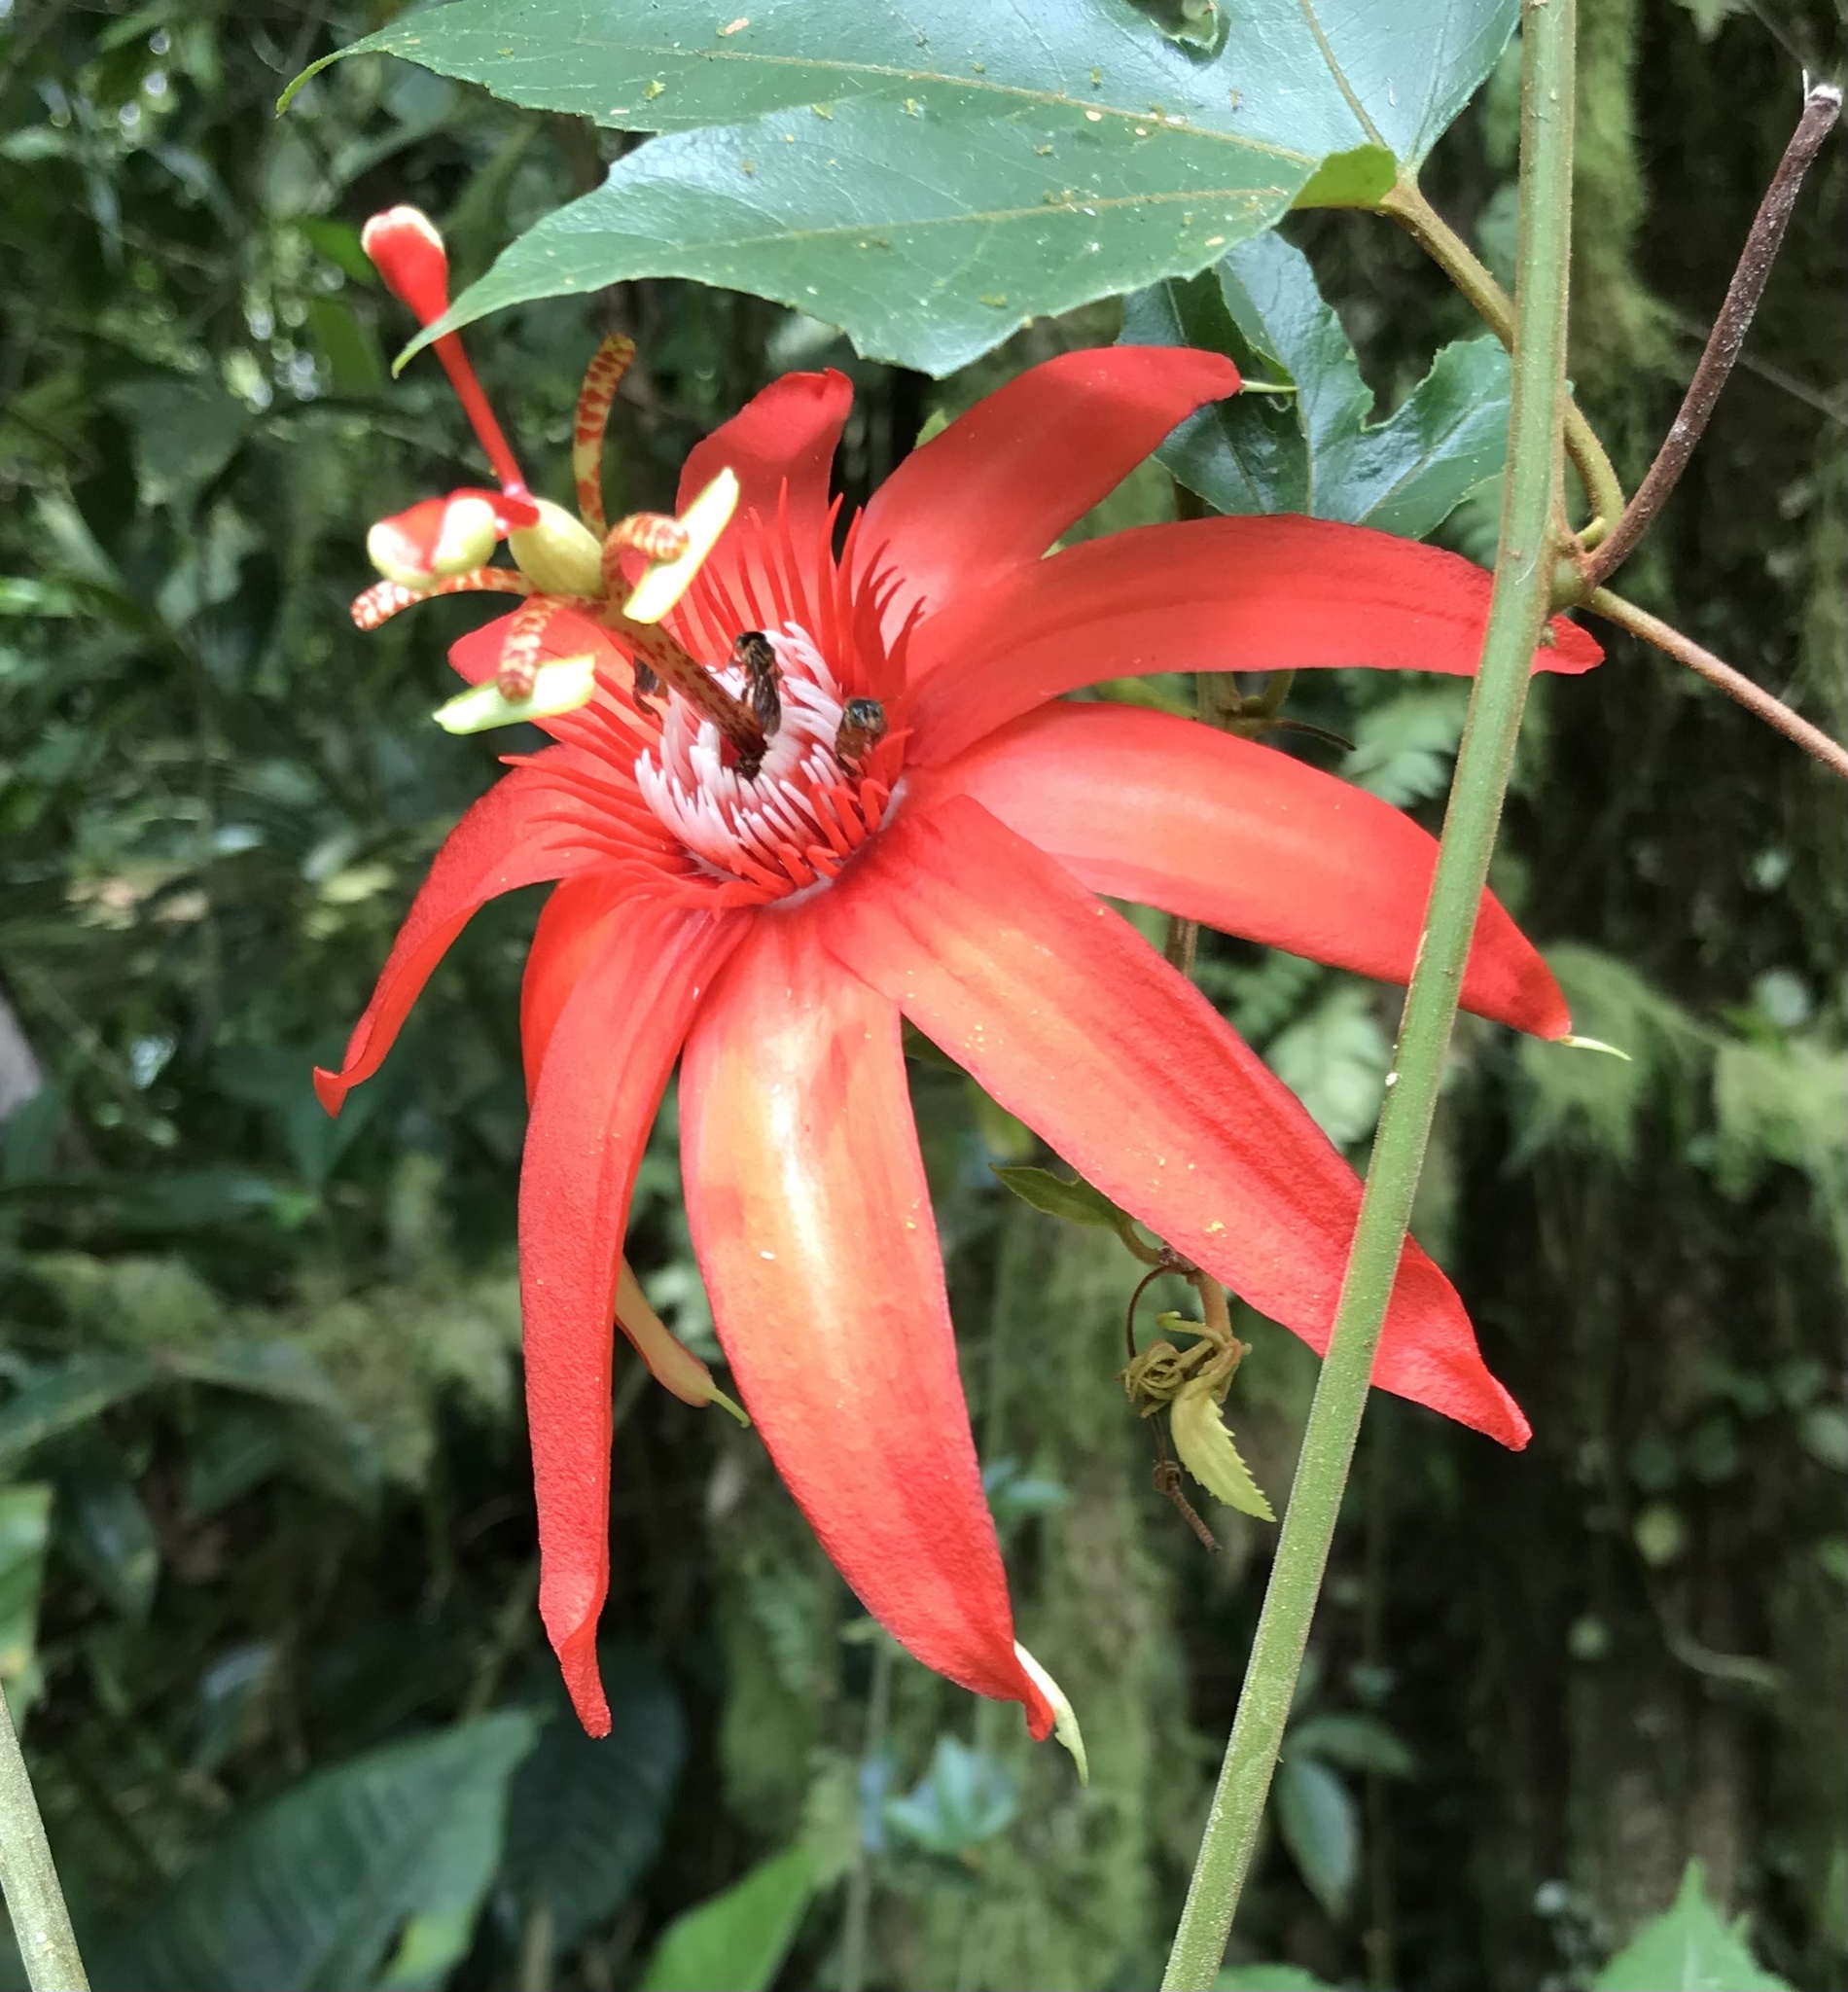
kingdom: Plantae
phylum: Tracheophyta
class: Magnoliopsida
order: Malpighiales
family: Passifloraceae
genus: Passiflora
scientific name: Passiflora vitifolia
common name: Perfumed passionflower
